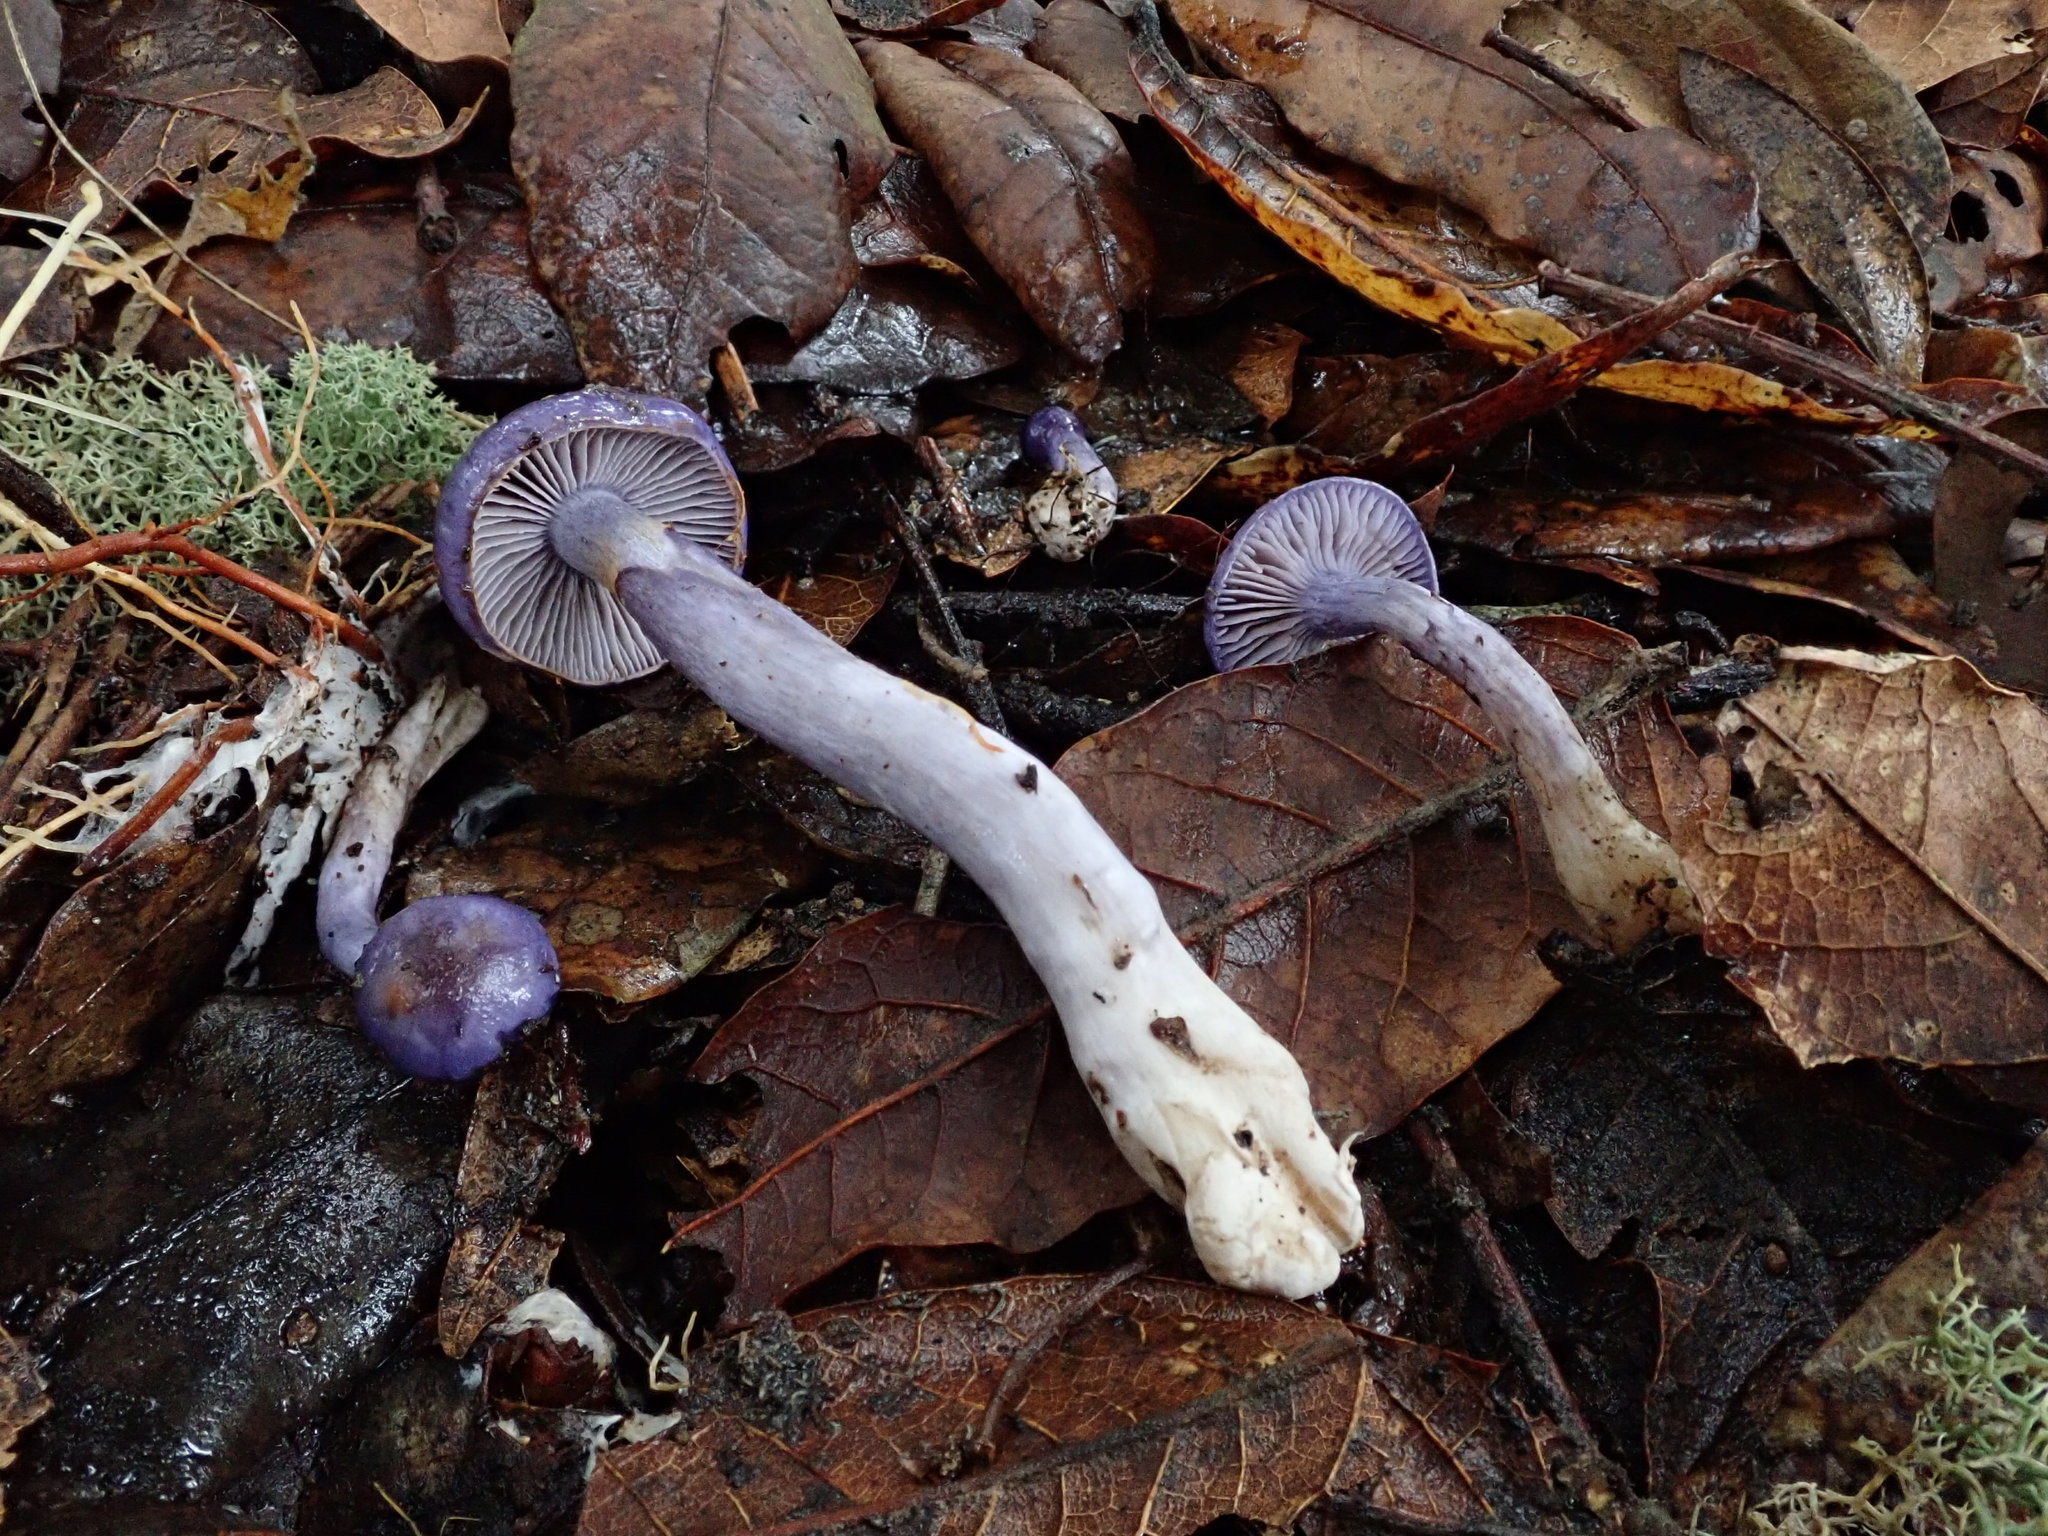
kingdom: Fungi
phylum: Basidiomycota
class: Agaricomycetes
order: Agaricales
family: Cortinariaceae
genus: Cortinarius
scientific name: Cortinarius iodes
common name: Viscid violet cort
